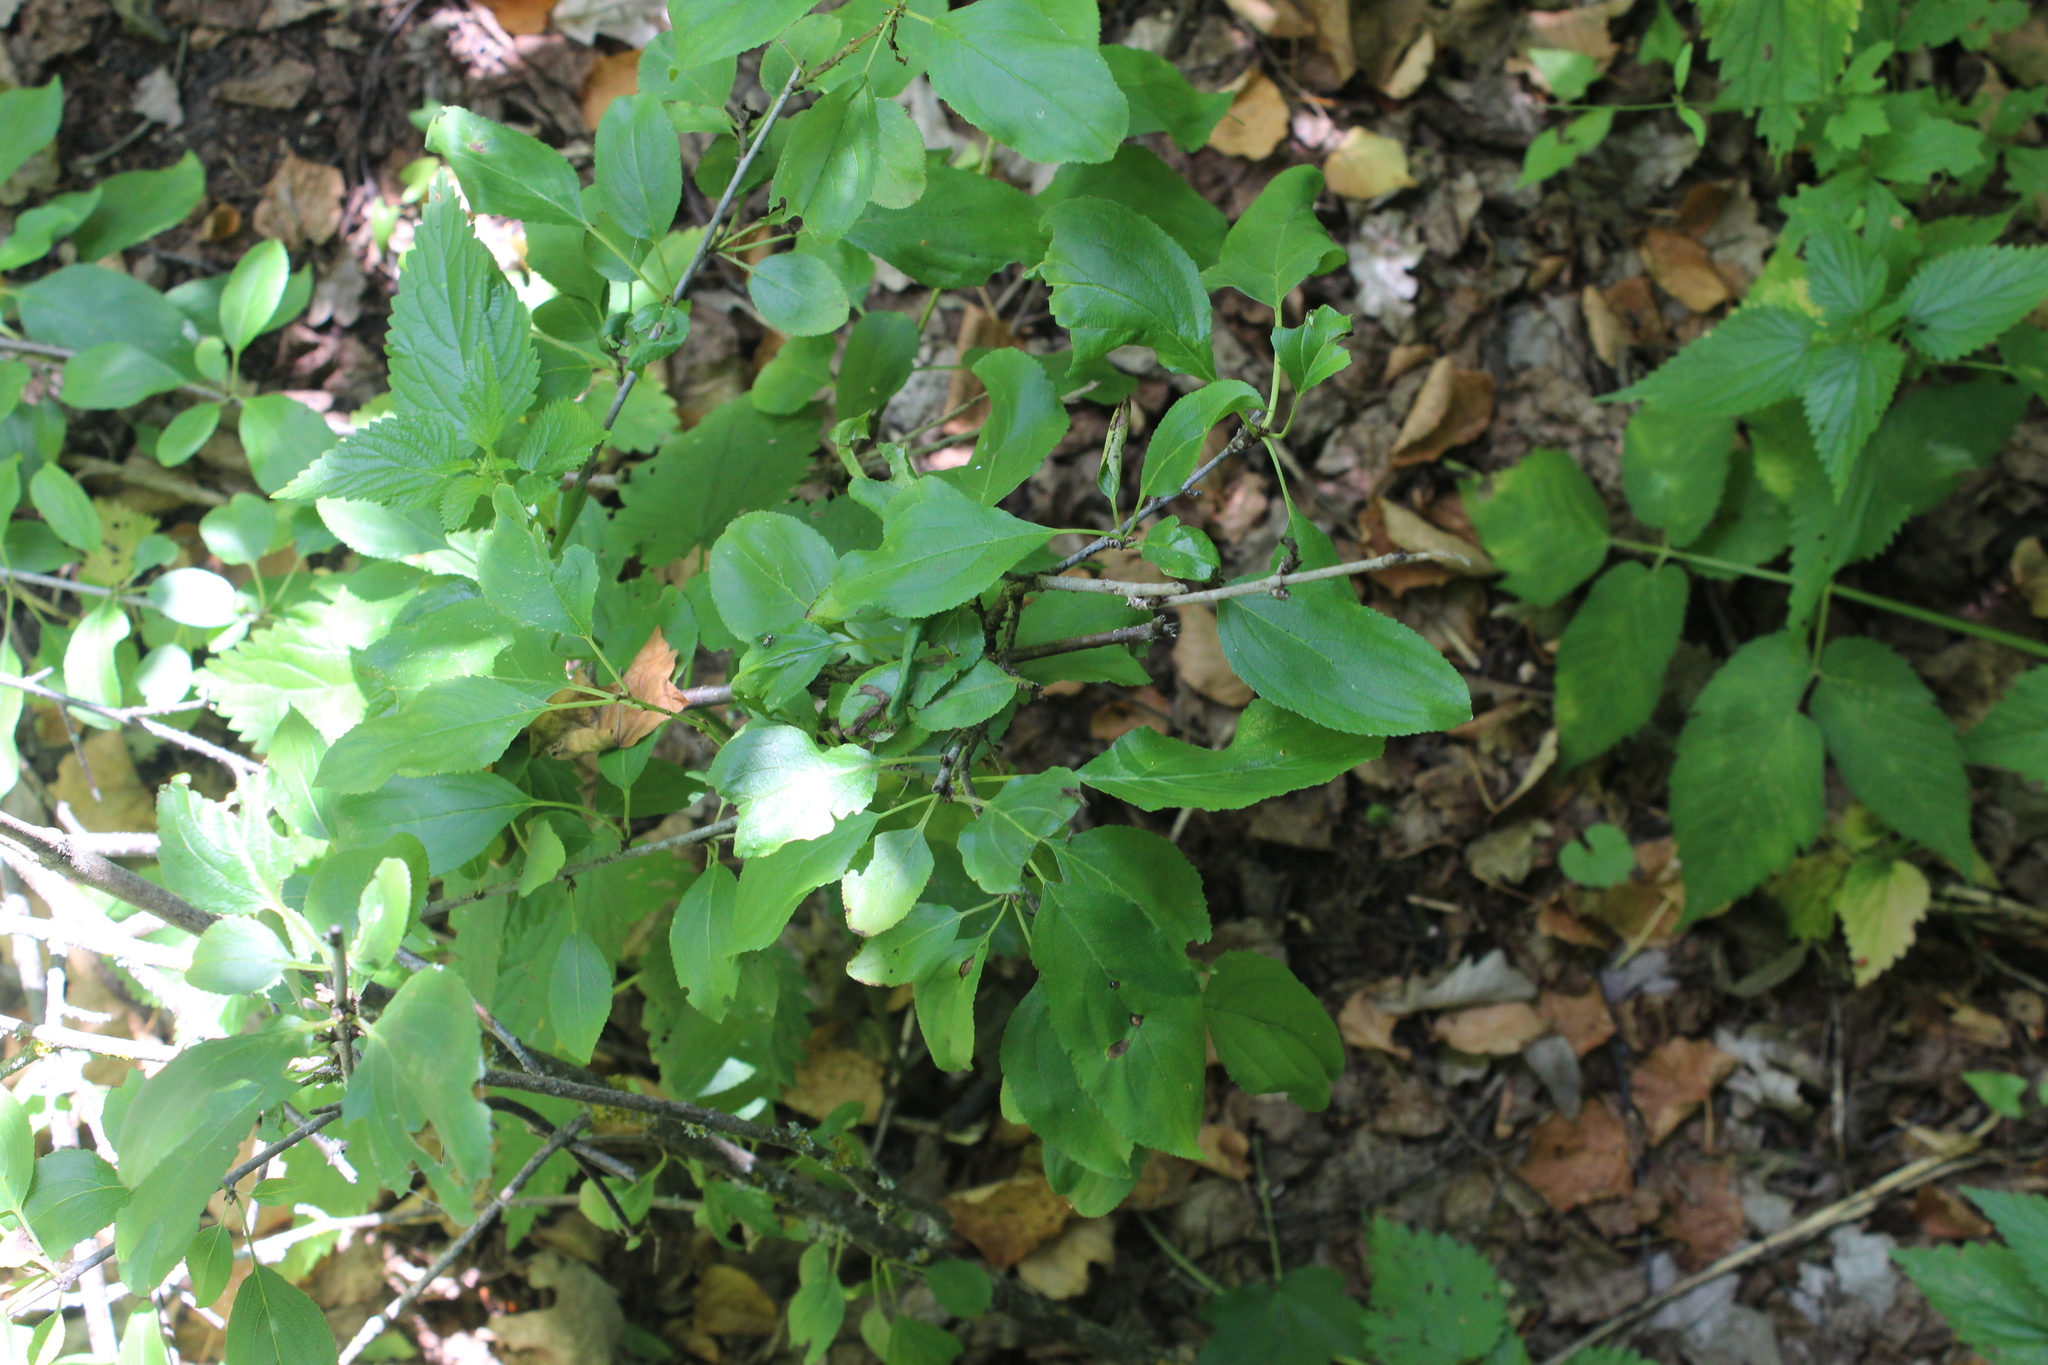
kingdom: Plantae
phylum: Tracheophyta
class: Magnoliopsida
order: Rosales
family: Rhamnaceae
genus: Rhamnus
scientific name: Rhamnus cathartica
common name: Common buckthorn
